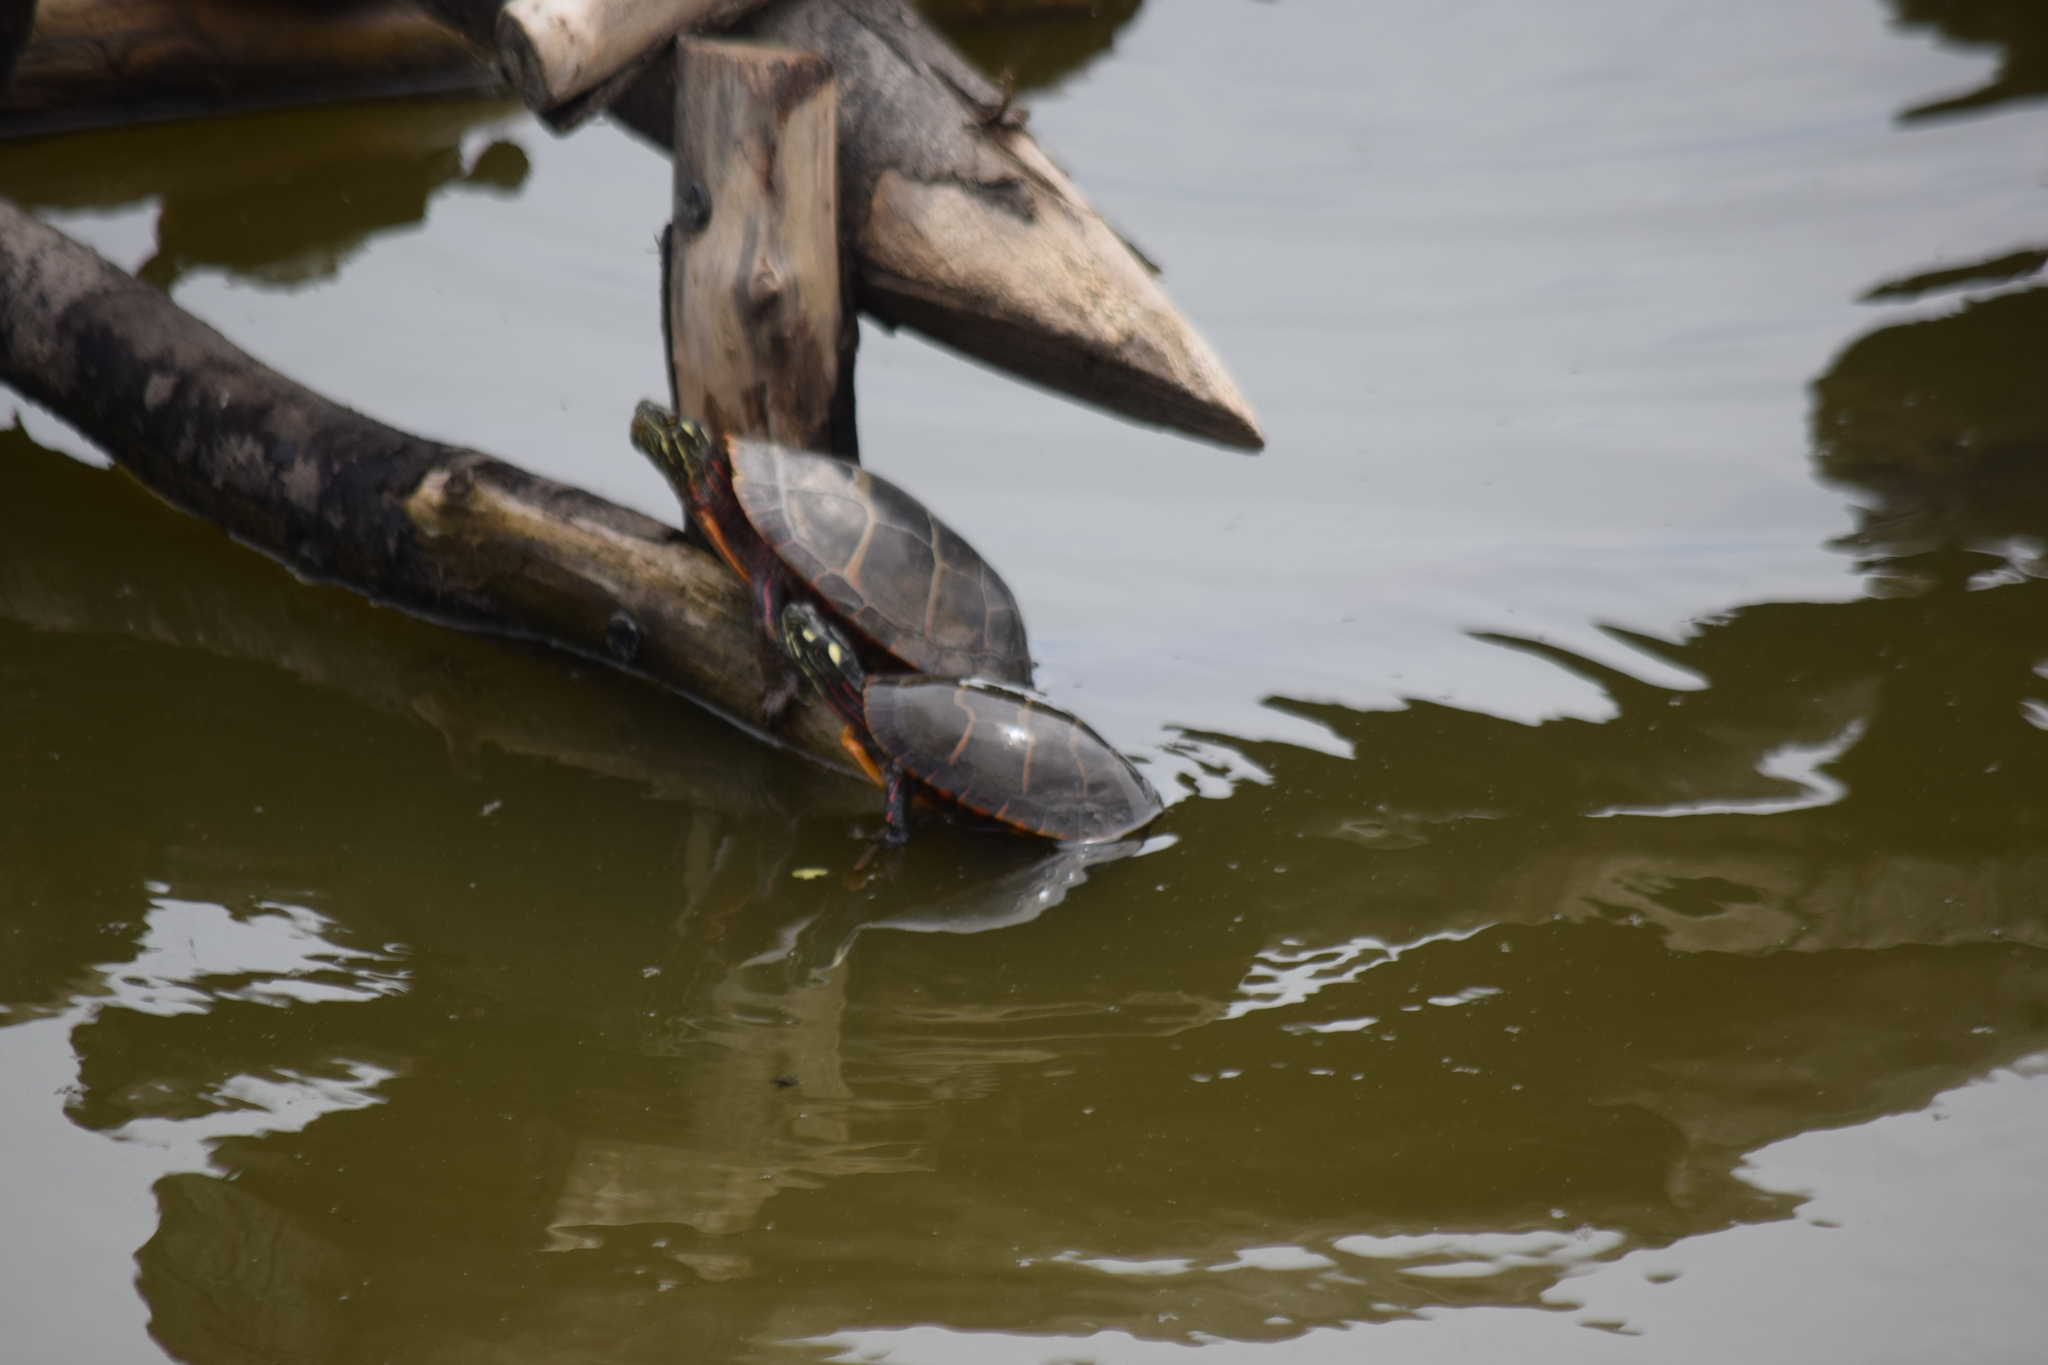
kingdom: Animalia
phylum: Chordata
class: Testudines
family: Emydidae
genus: Chrysemys
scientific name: Chrysemys picta
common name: Painted turtle
